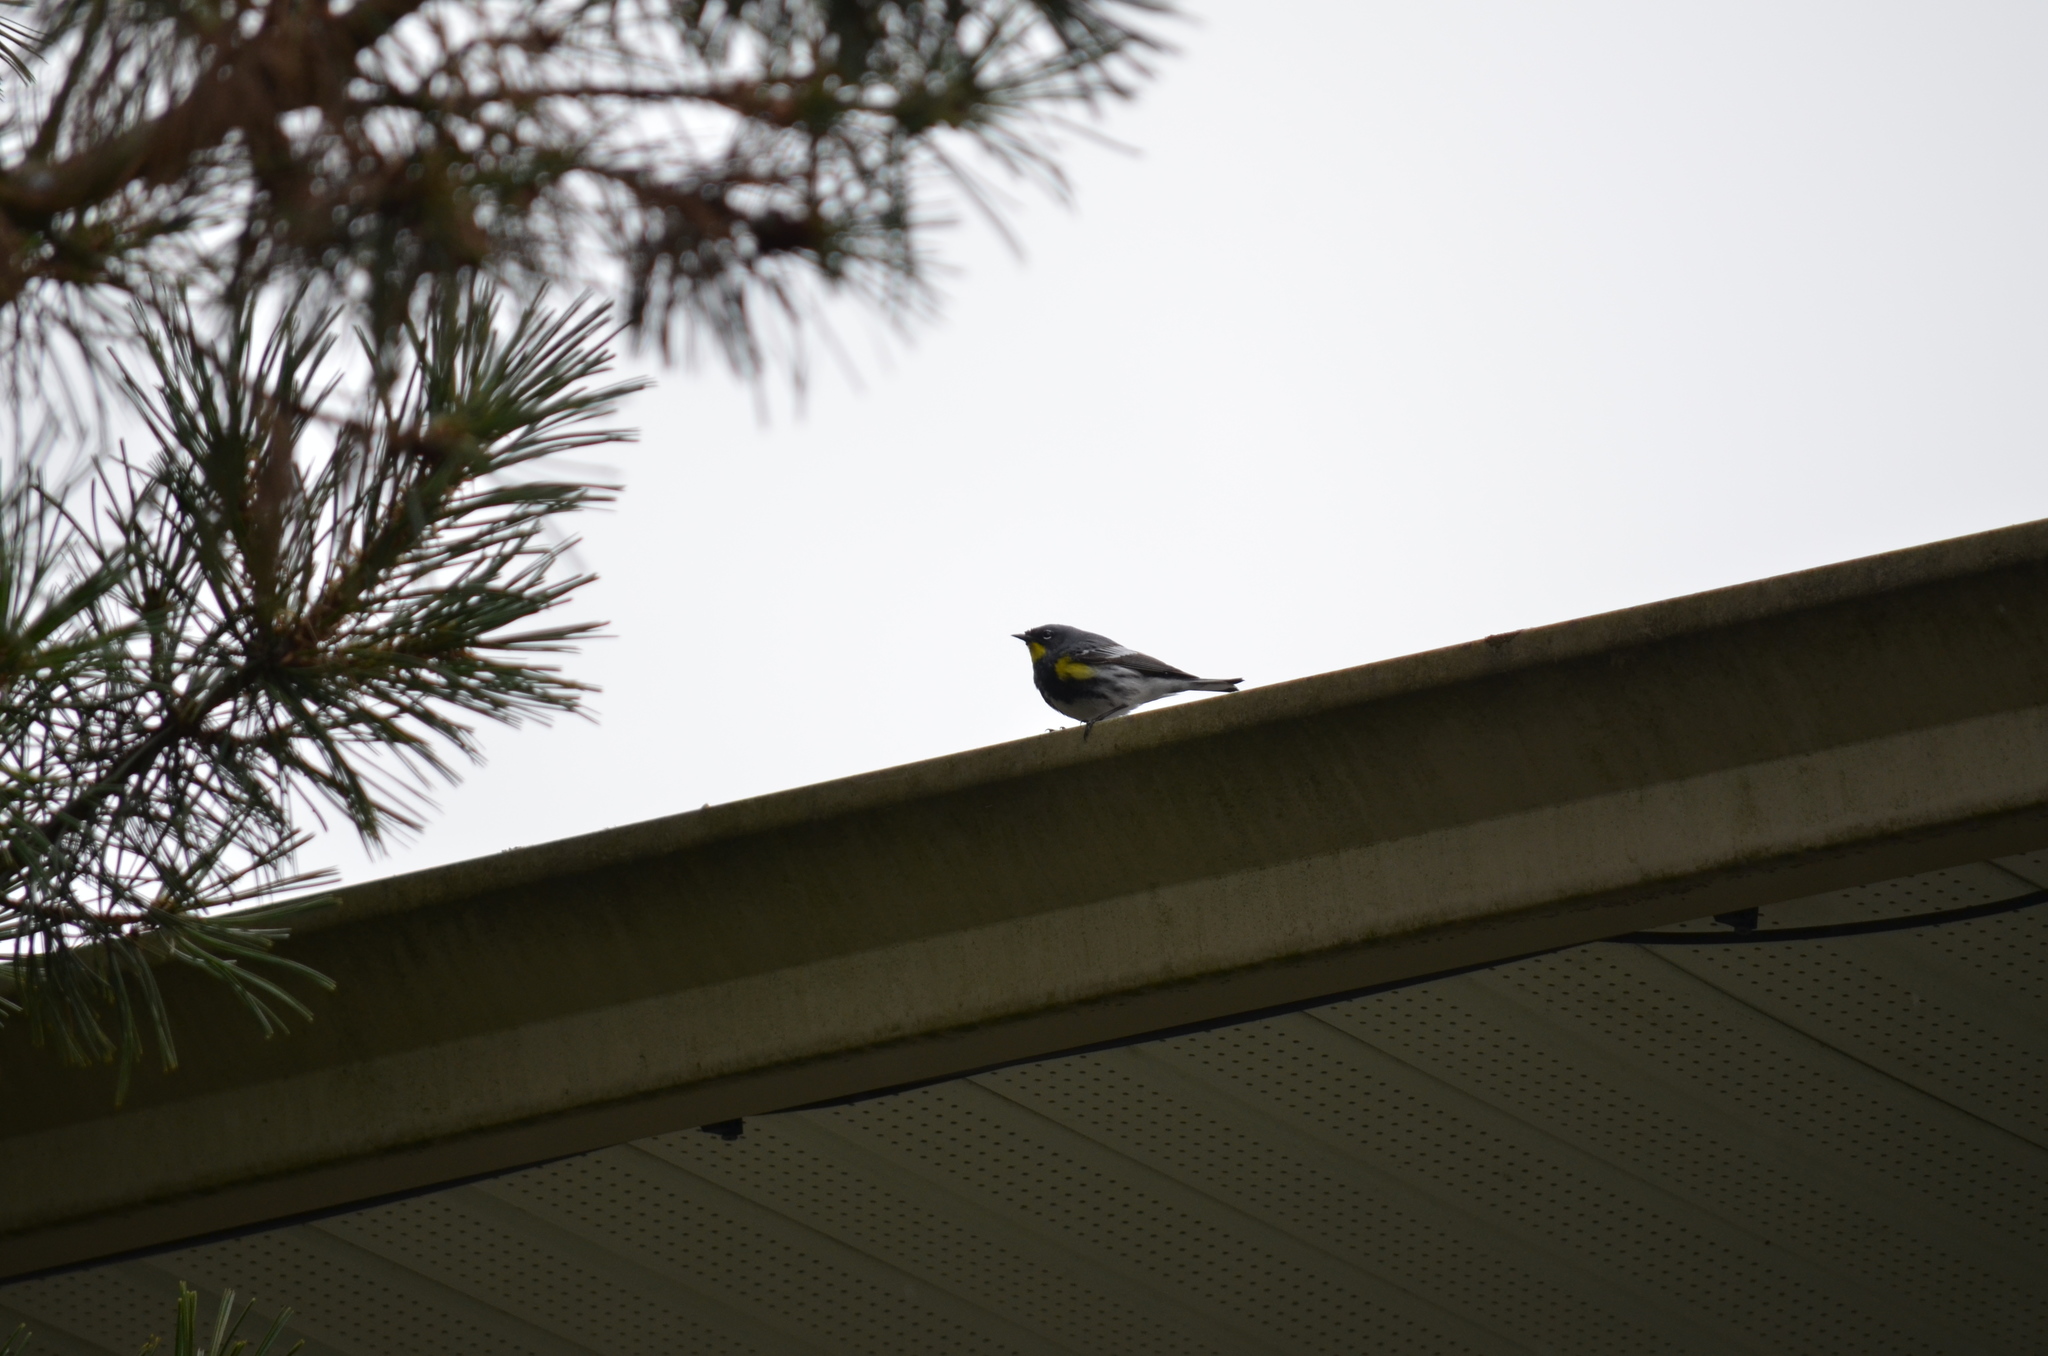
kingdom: Animalia
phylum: Chordata
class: Aves
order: Passeriformes
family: Parulidae
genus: Setophaga
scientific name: Setophaga auduboni
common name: Audubon's warbler
